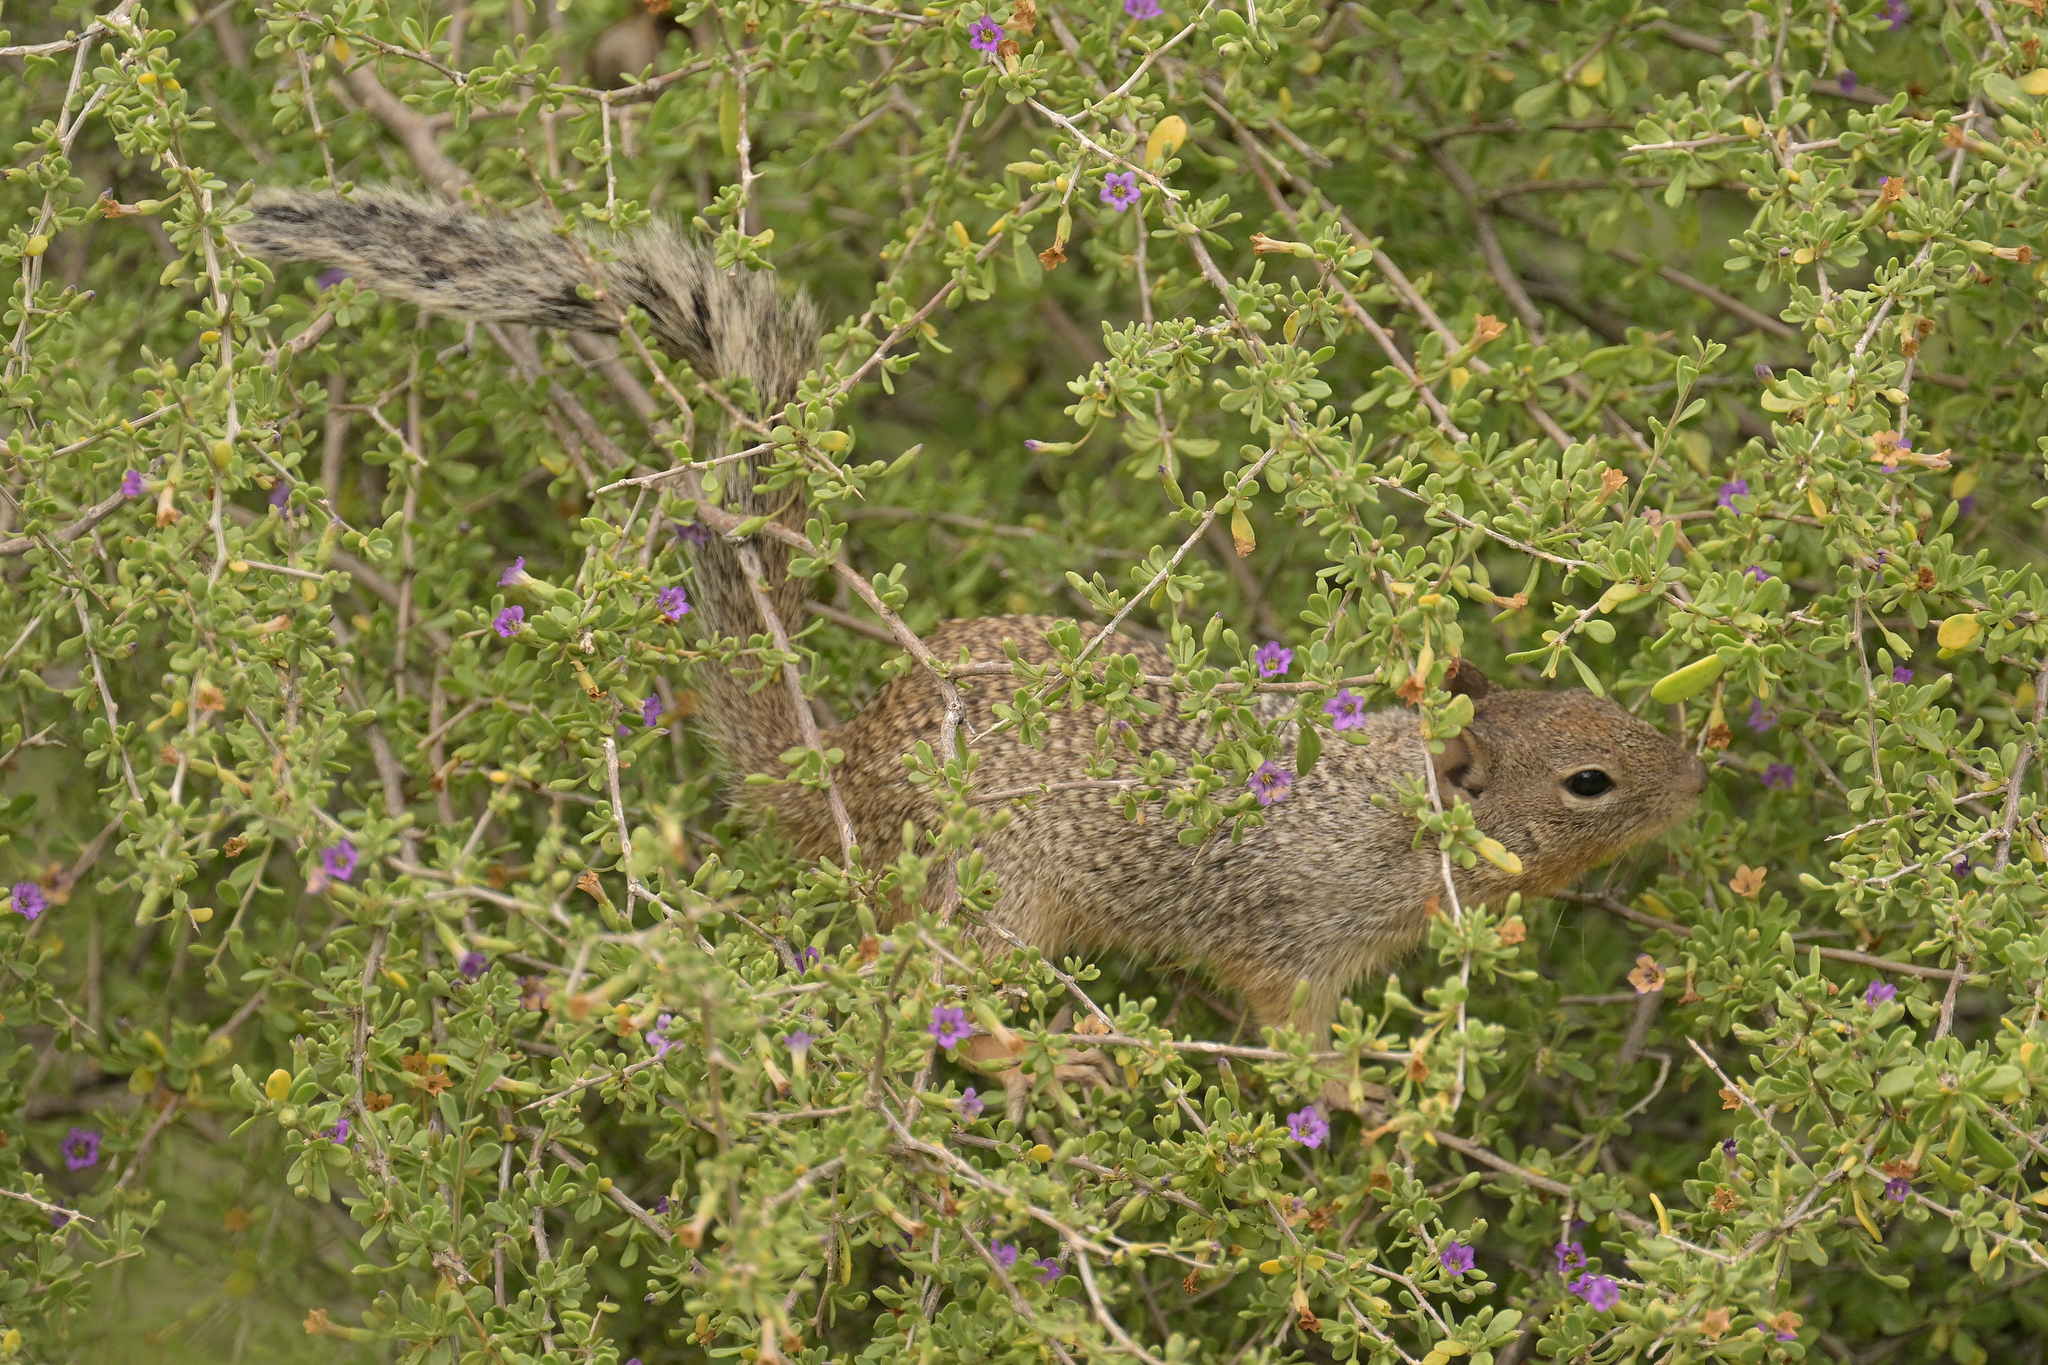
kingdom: Animalia
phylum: Chordata
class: Mammalia
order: Rodentia
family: Sciuridae
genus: Otospermophilus
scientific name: Otospermophilus variegatus
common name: Rock squirrel
